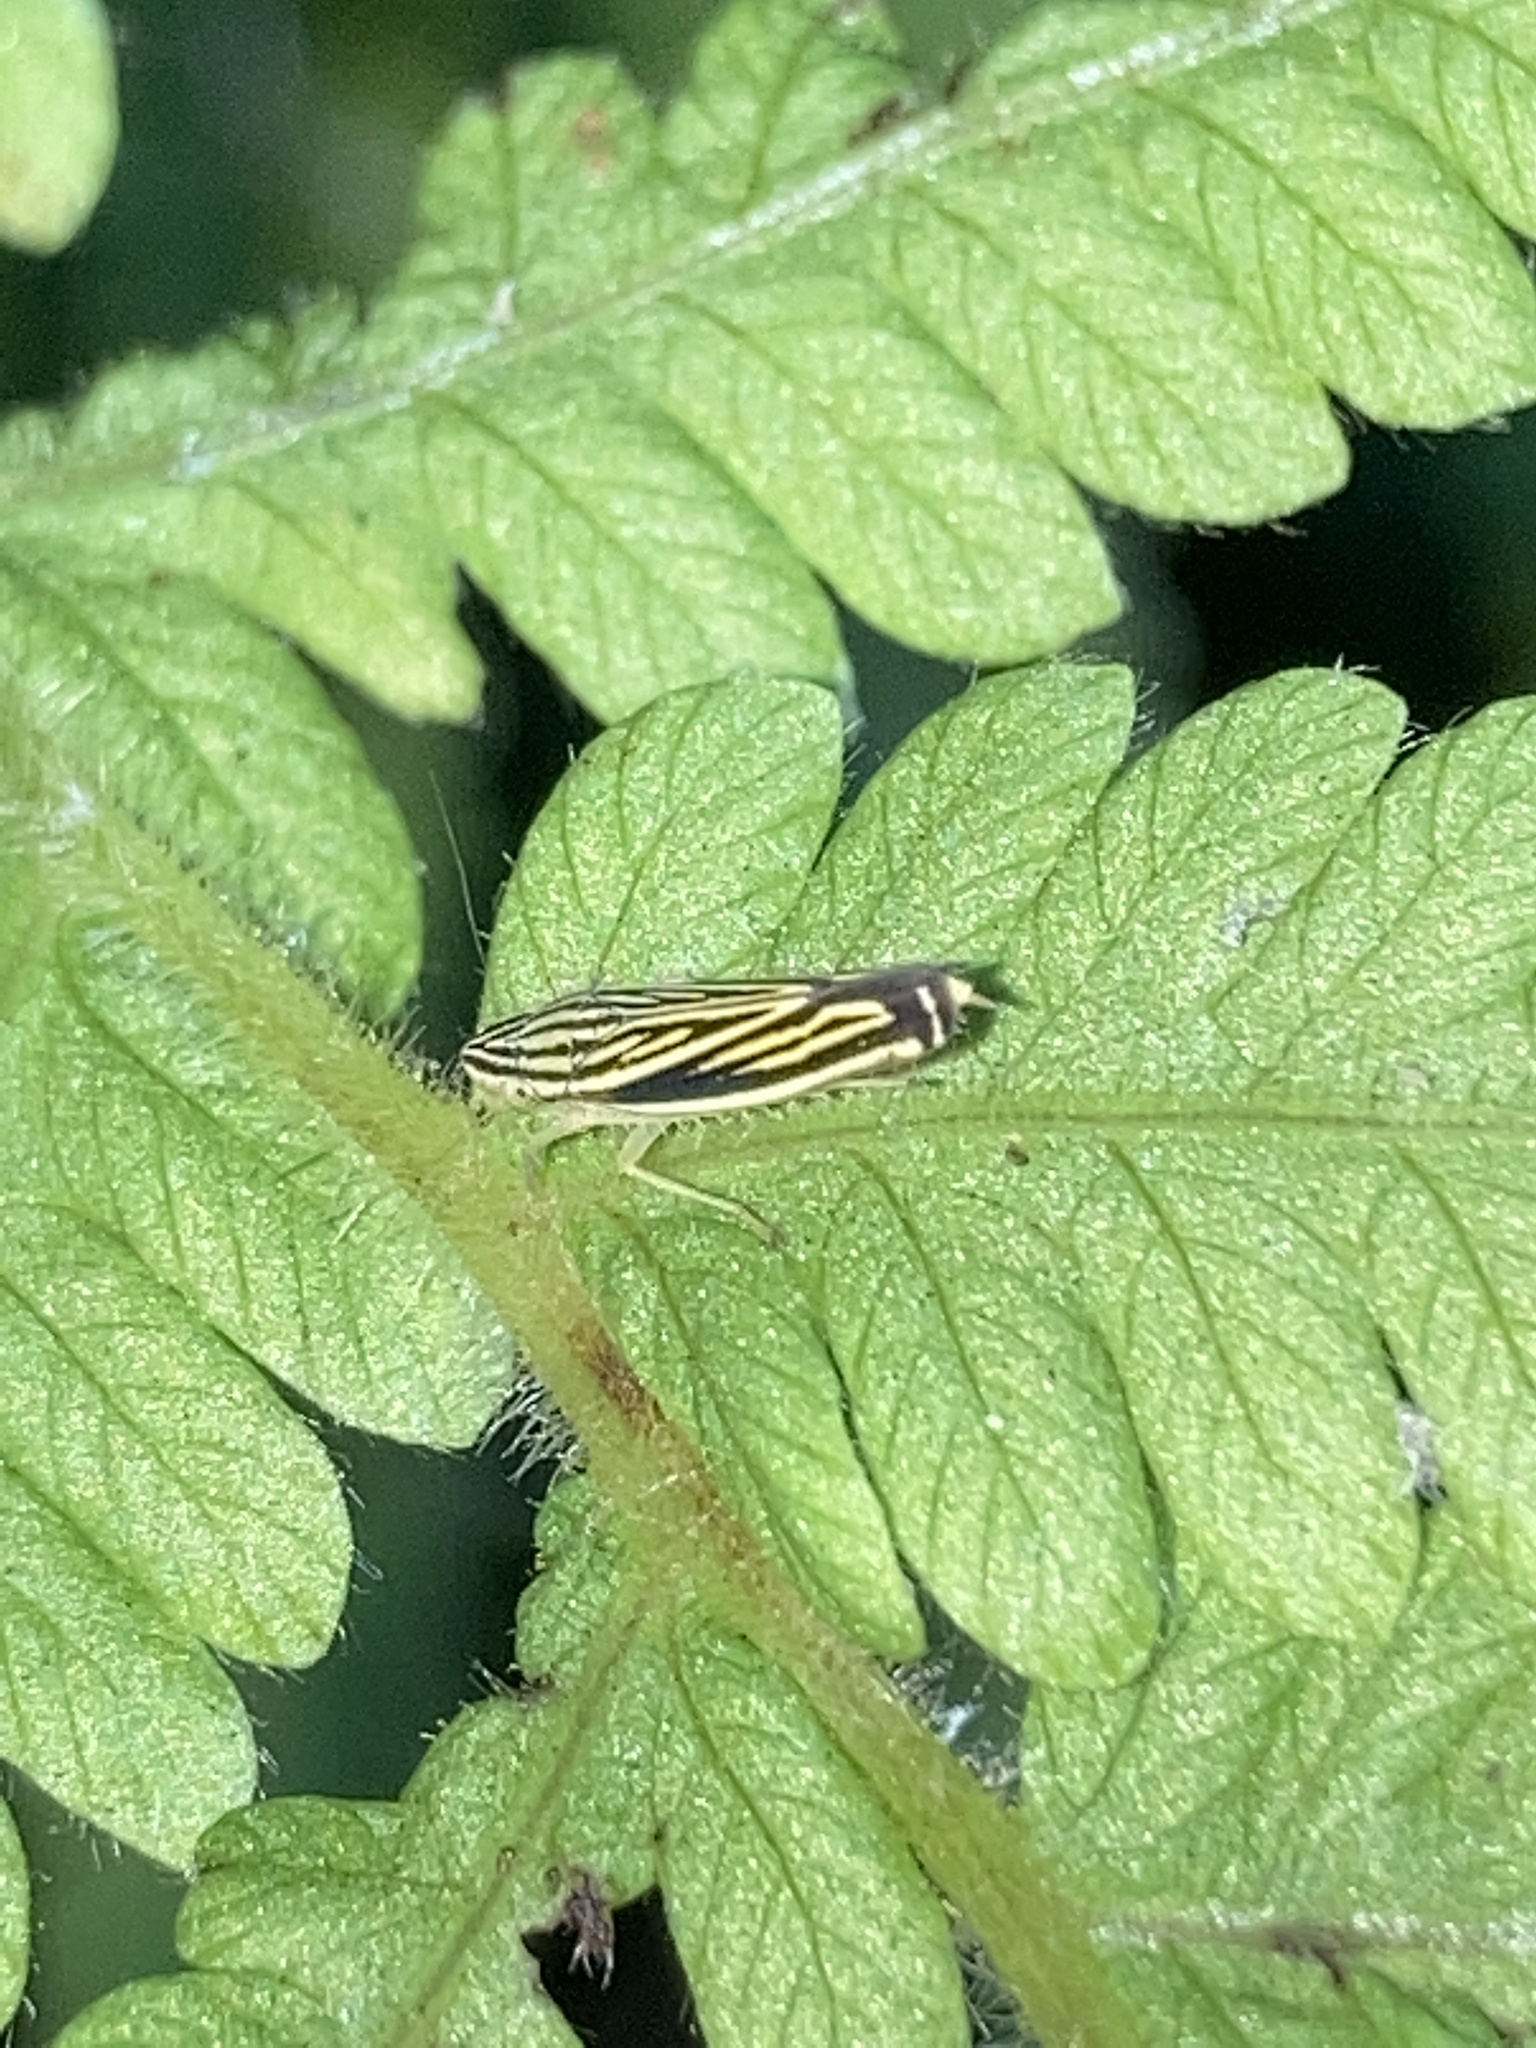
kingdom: Animalia
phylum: Arthropoda
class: Insecta
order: Hemiptera
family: Cicadellidae
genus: Sibovia
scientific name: Sibovia occatoria
